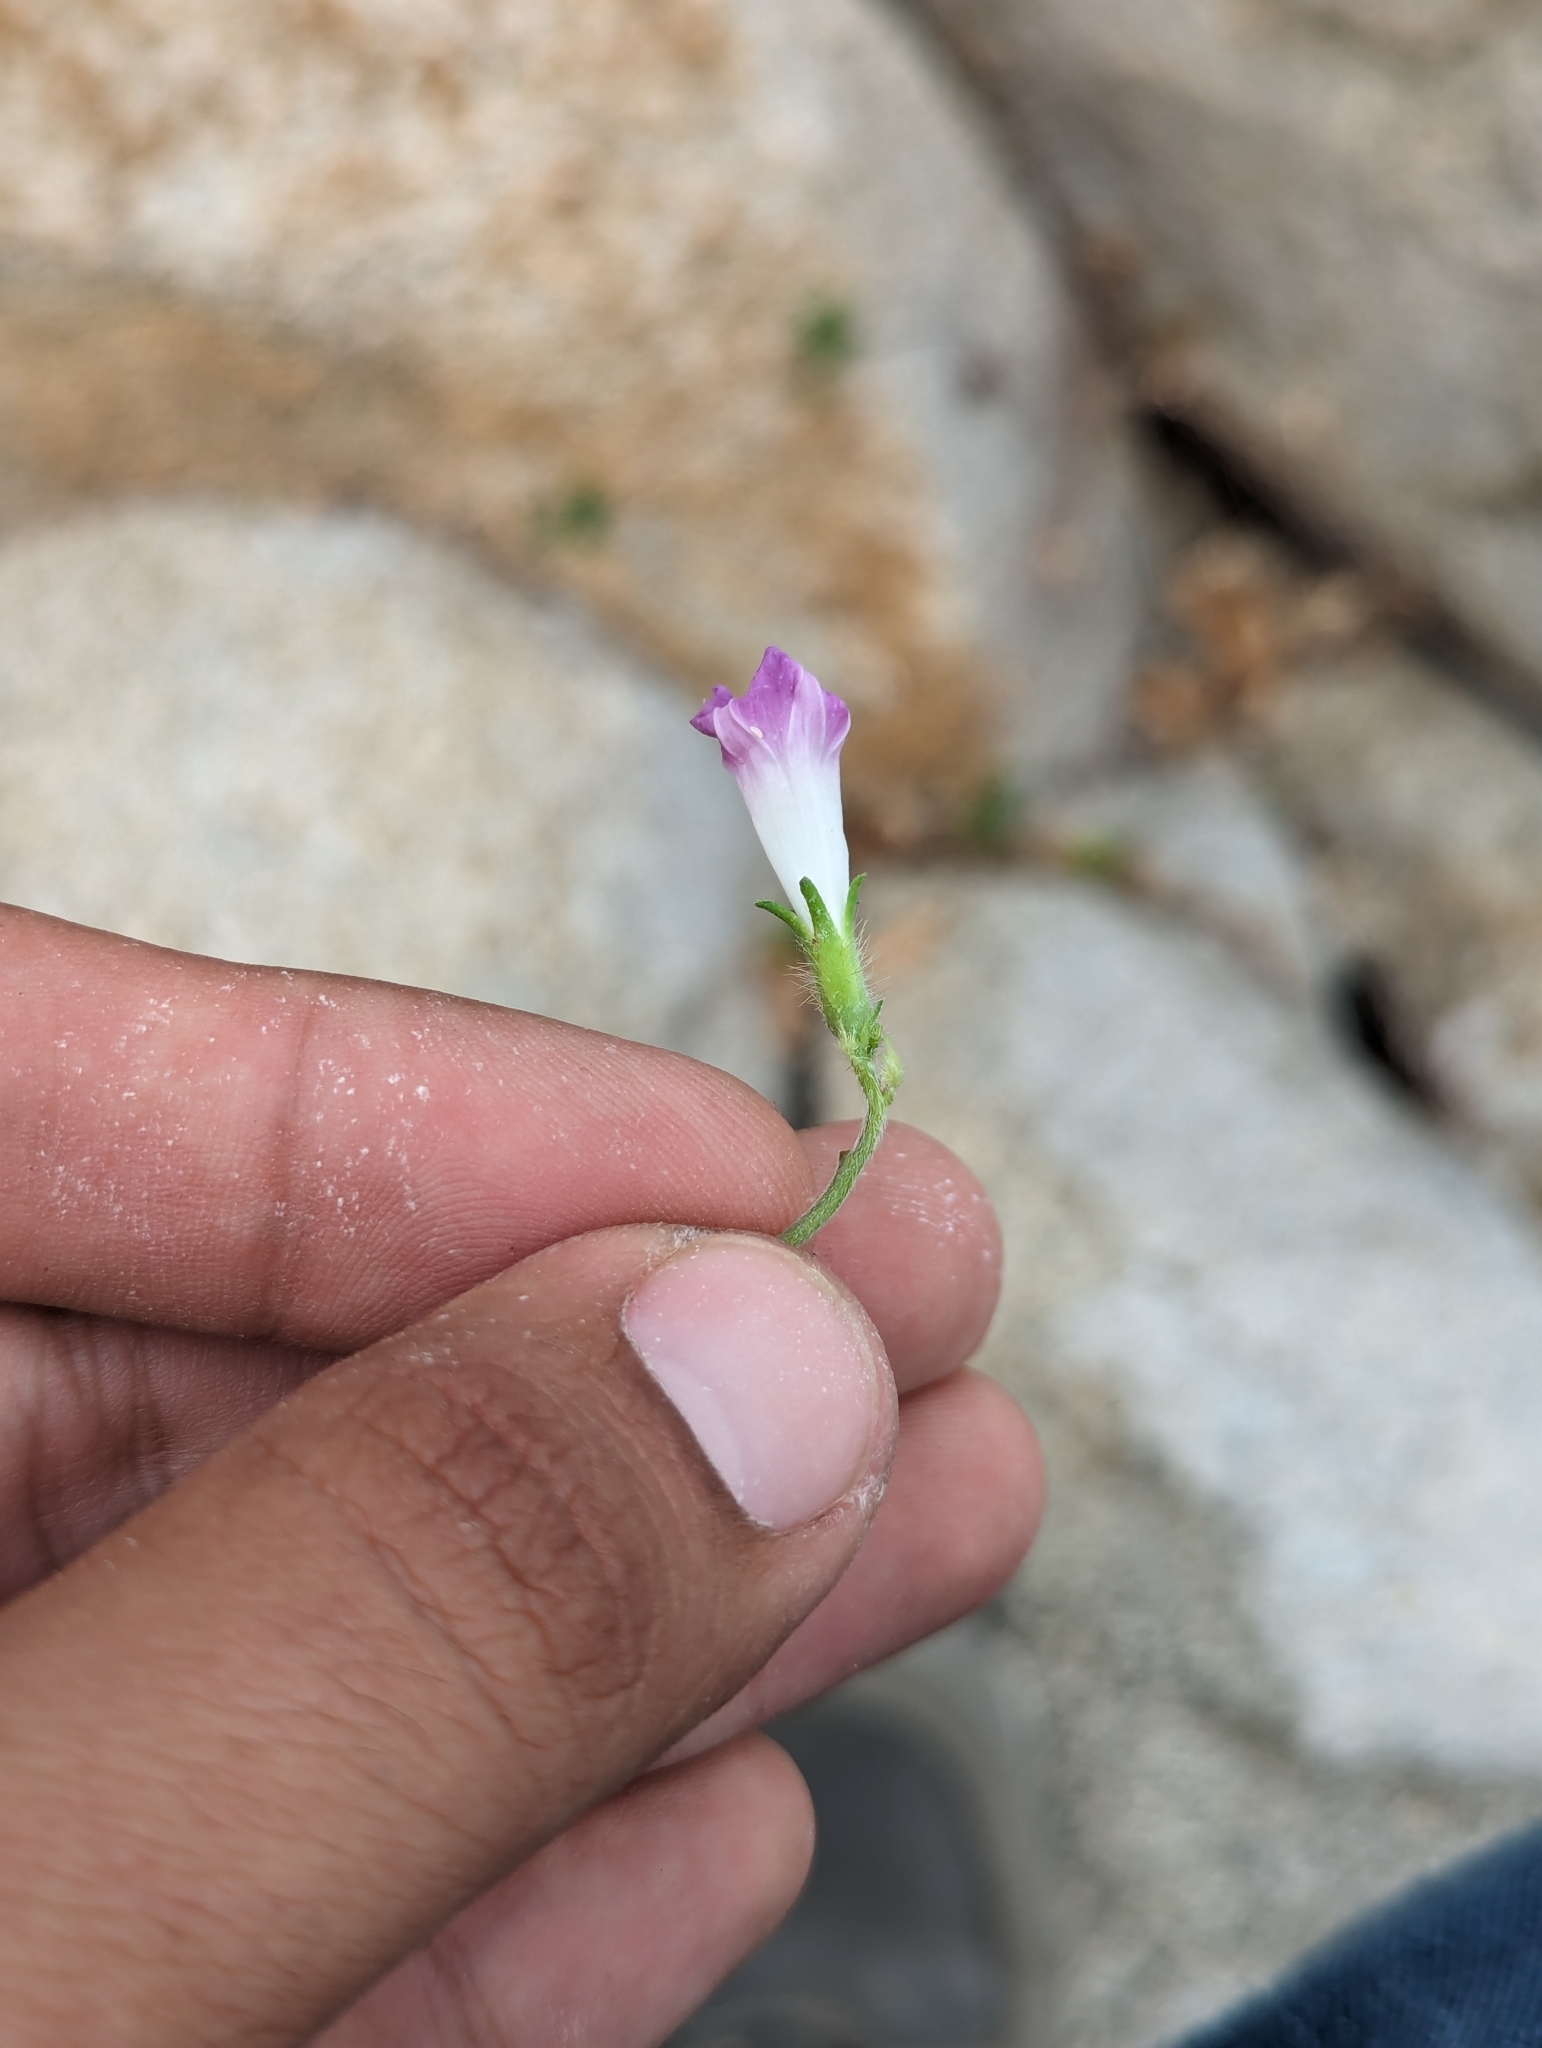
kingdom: Plantae
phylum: Tracheophyta
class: Magnoliopsida
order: Solanales
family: Convolvulaceae
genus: Ipomoea
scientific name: Ipomoea nil
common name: Japanese morning-glory
